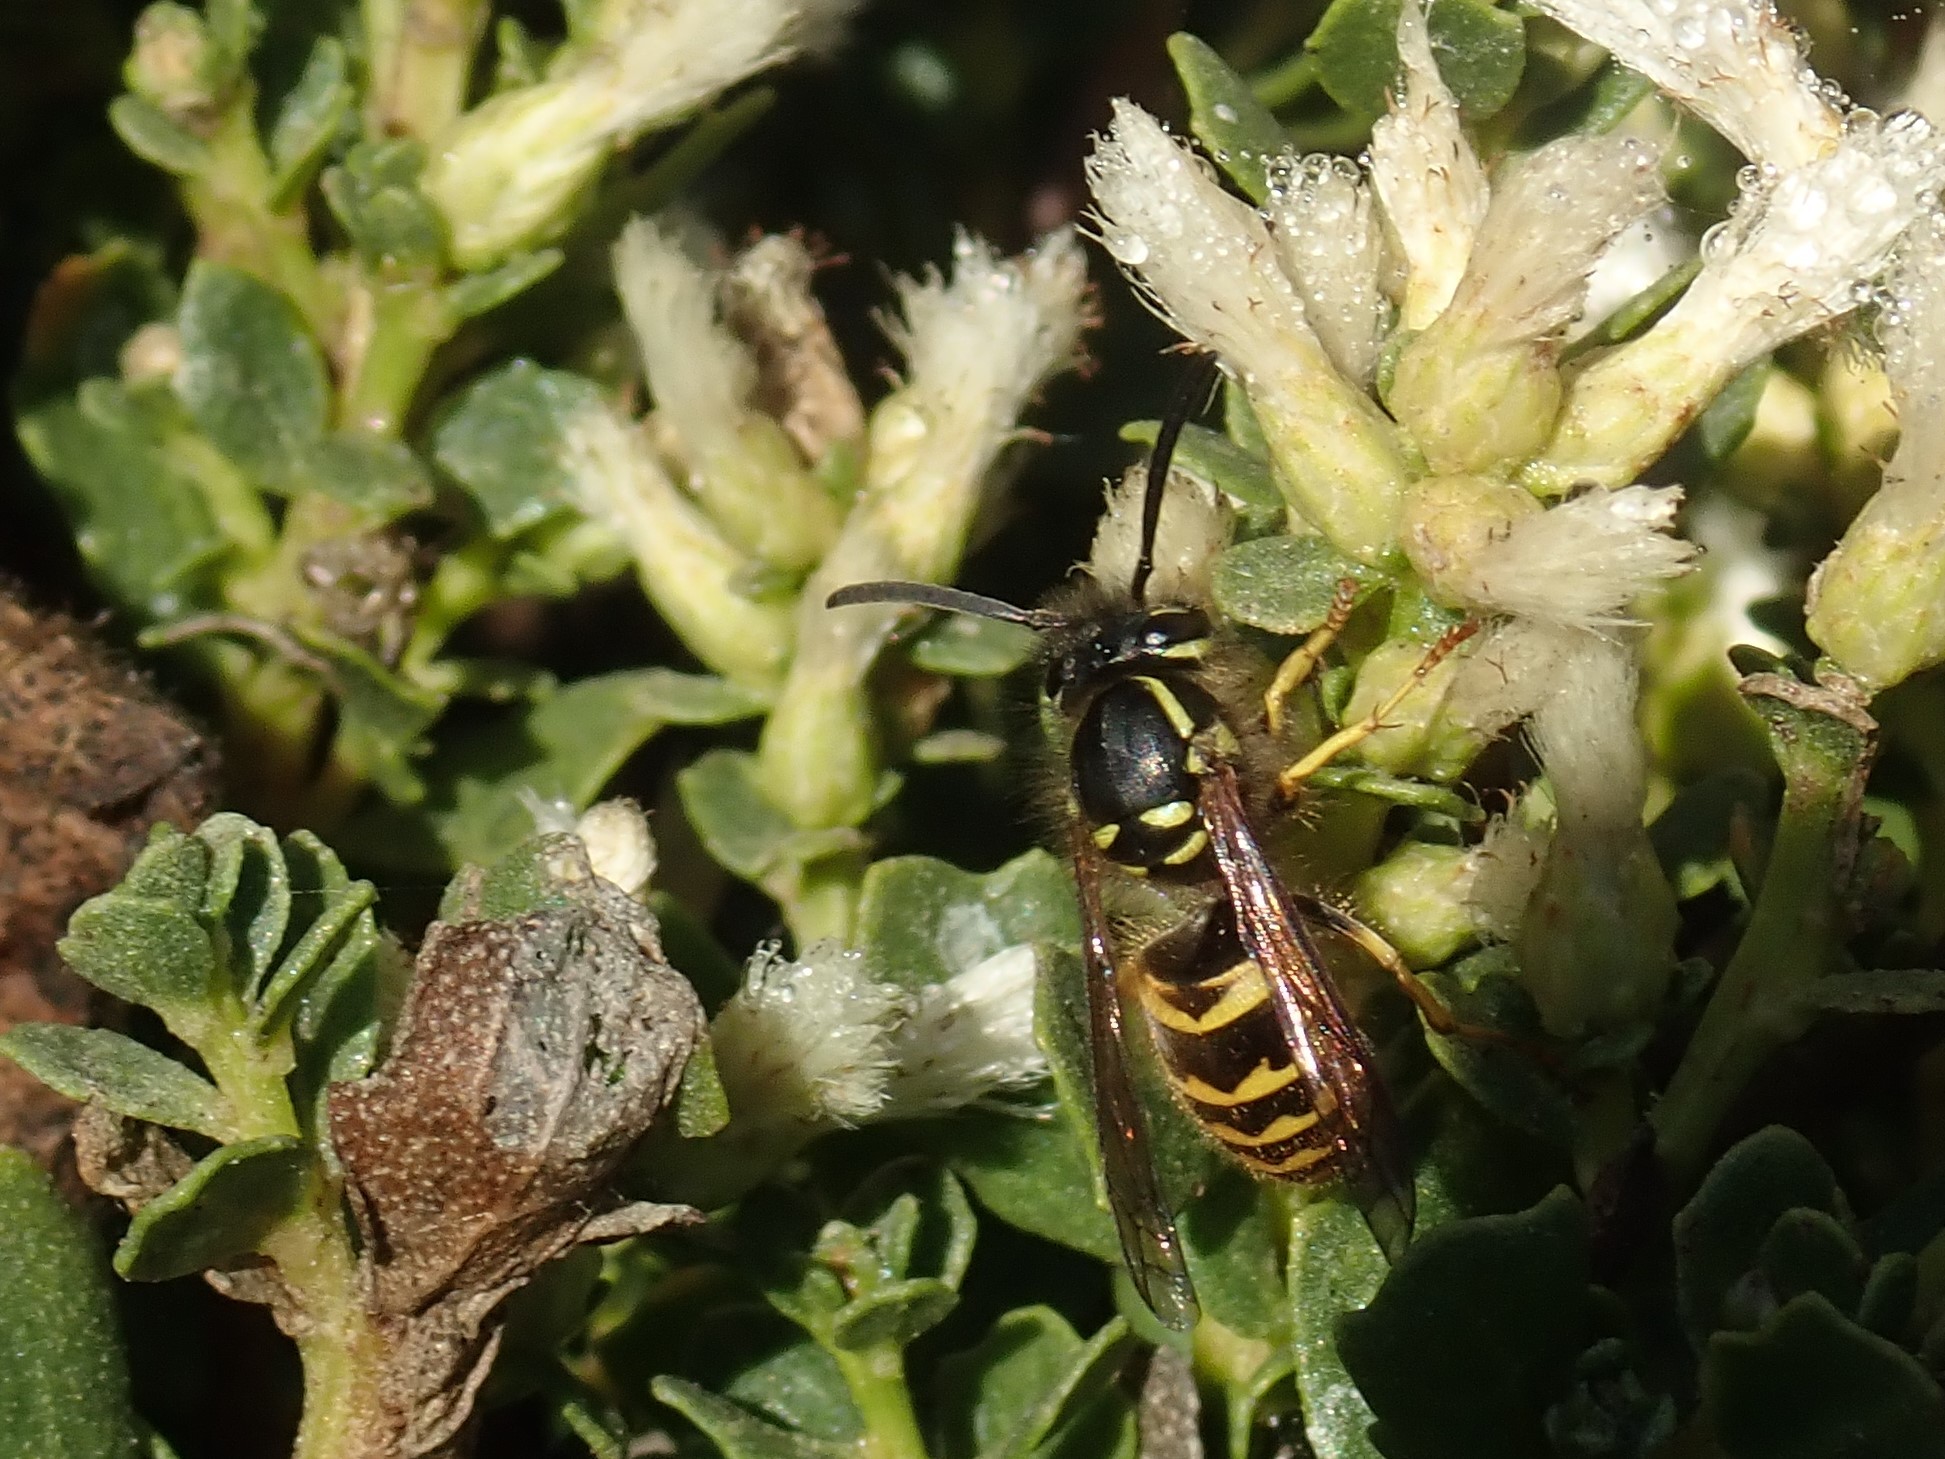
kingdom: Animalia
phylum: Arthropoda
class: Insecta
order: Hymenoptera
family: Vespidae
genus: Vespula
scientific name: Vespula alascensis
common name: Alaska yellowjacket
